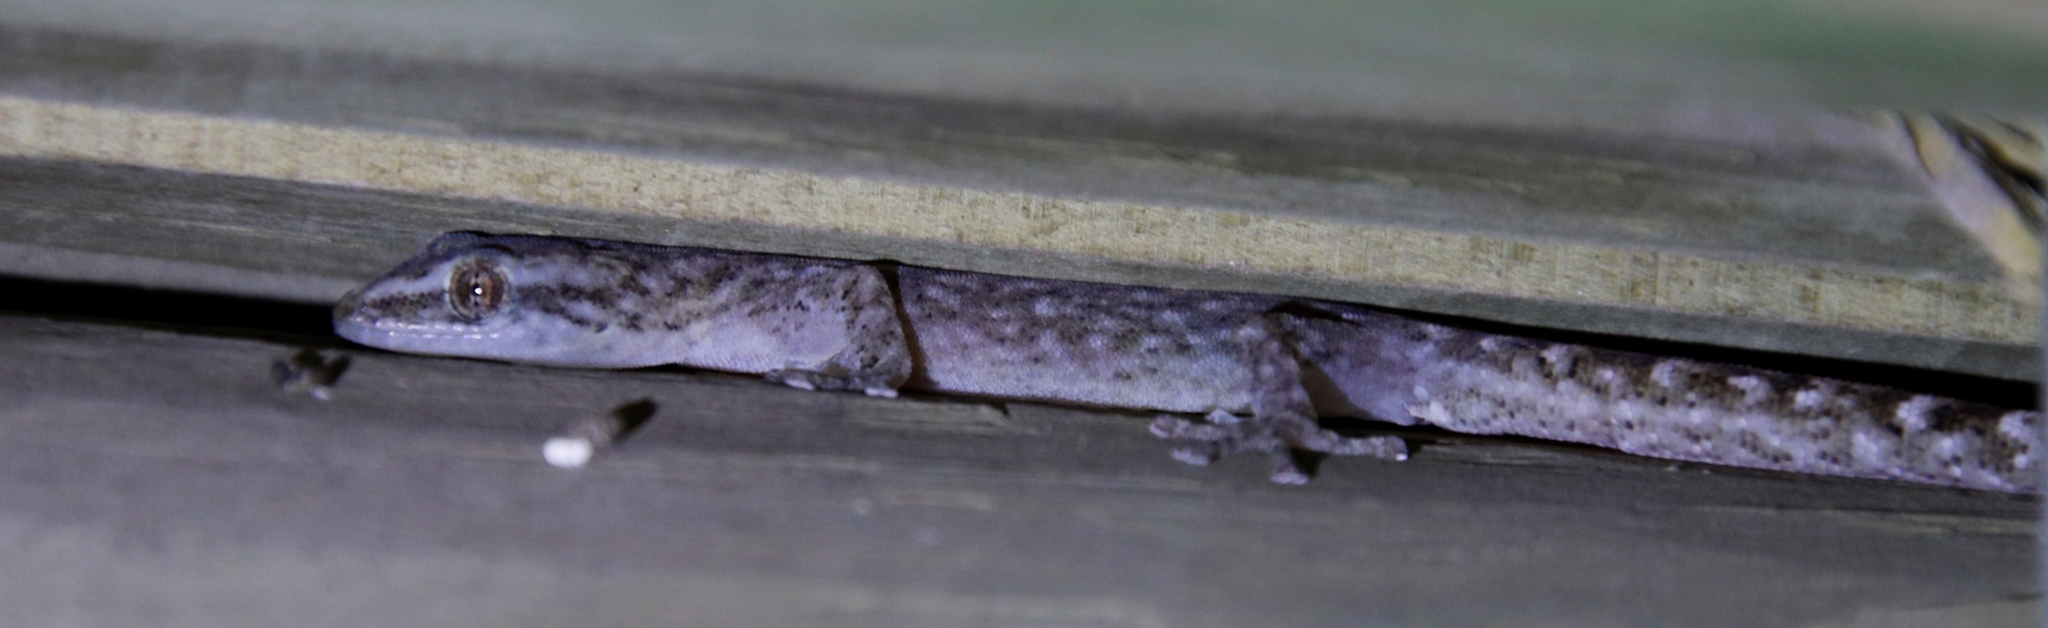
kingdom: Animalia
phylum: Chordata
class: Squamata
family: Gekkonidae
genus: Afrogecko
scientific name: Afrogecko porphyreus
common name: Marbled leaf-toed gecko
